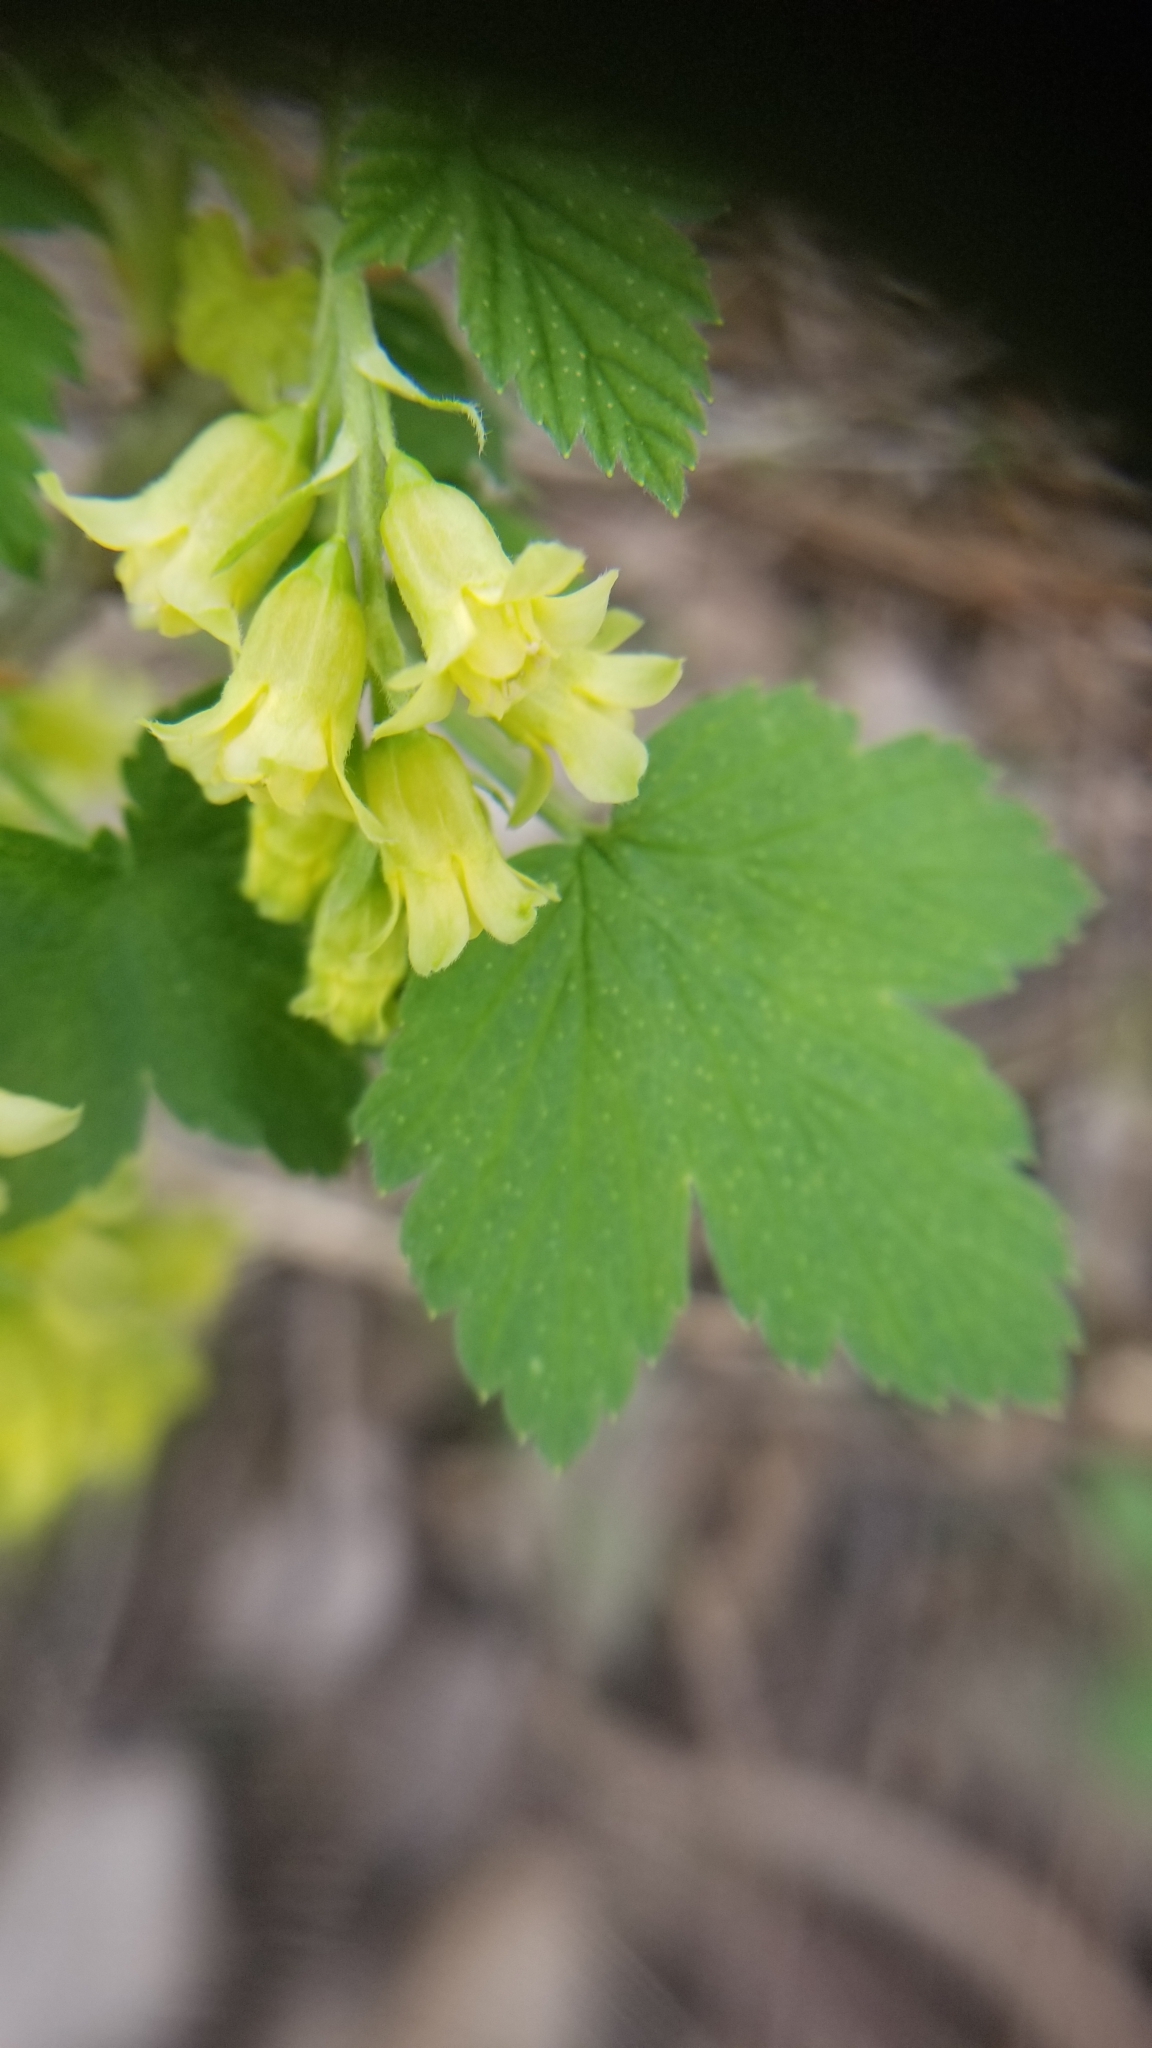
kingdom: Plantae
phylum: Tracheophyta
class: Magnoliopsida
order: Saxifragales
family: Grossulariaceae
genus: Ribes
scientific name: Ribes americanum
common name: American black currant
